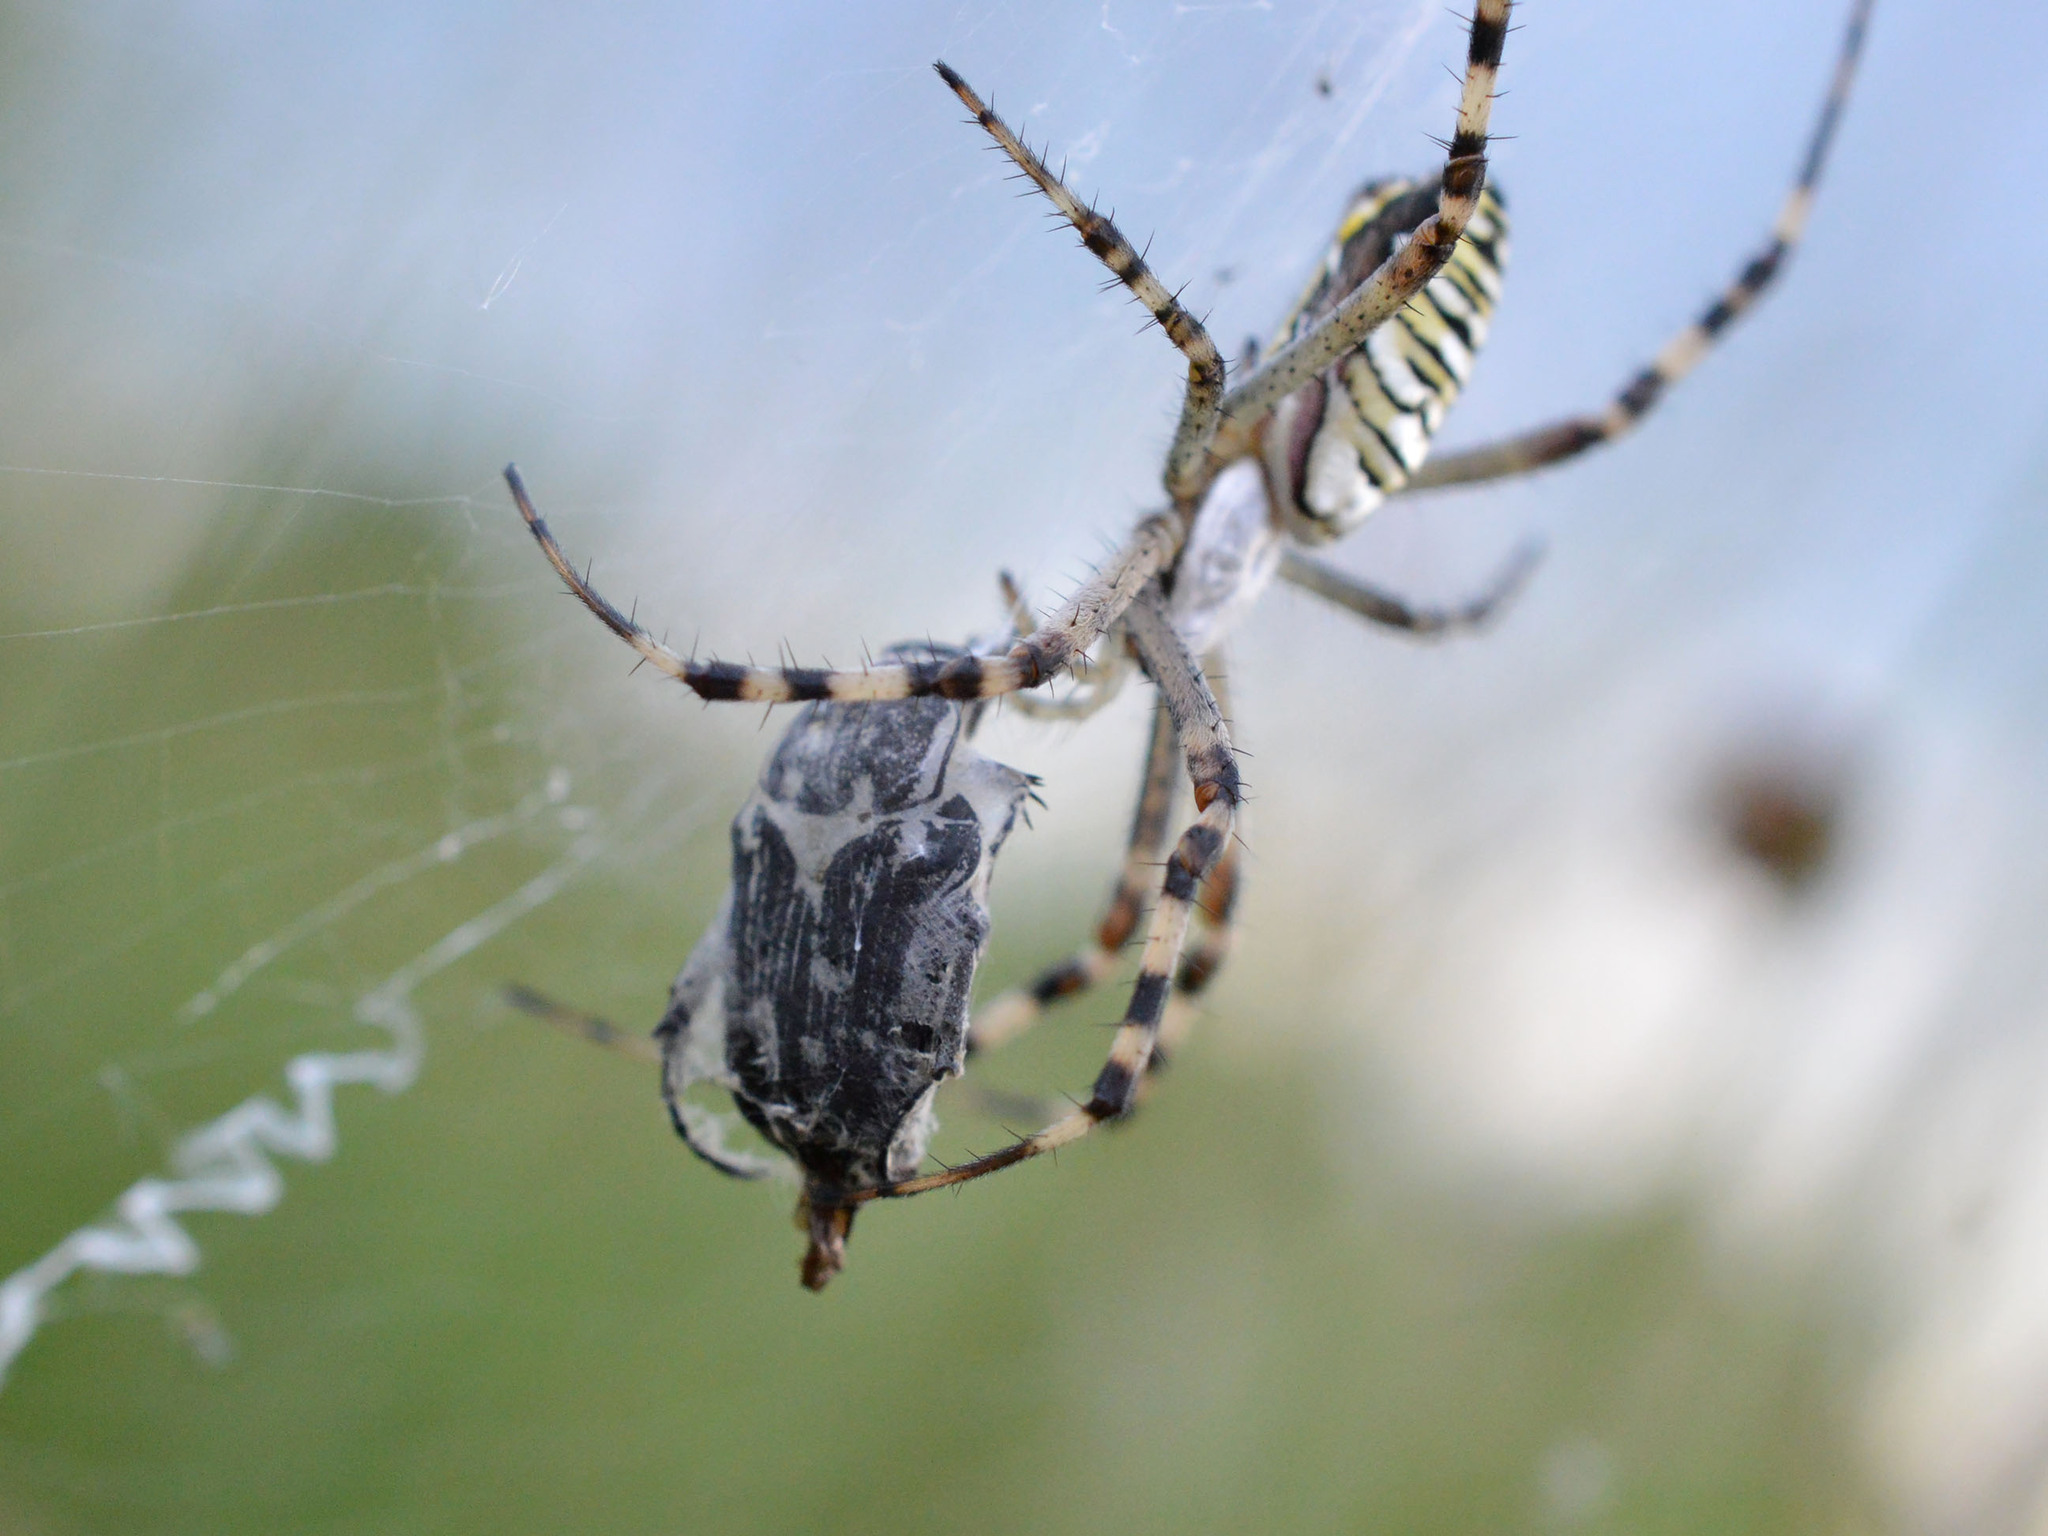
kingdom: Animalia
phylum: Arthropoda
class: Arachnida
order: Araneae
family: Araneidae
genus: Argiope
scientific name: Argiope bruennichi
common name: Wasp spider
